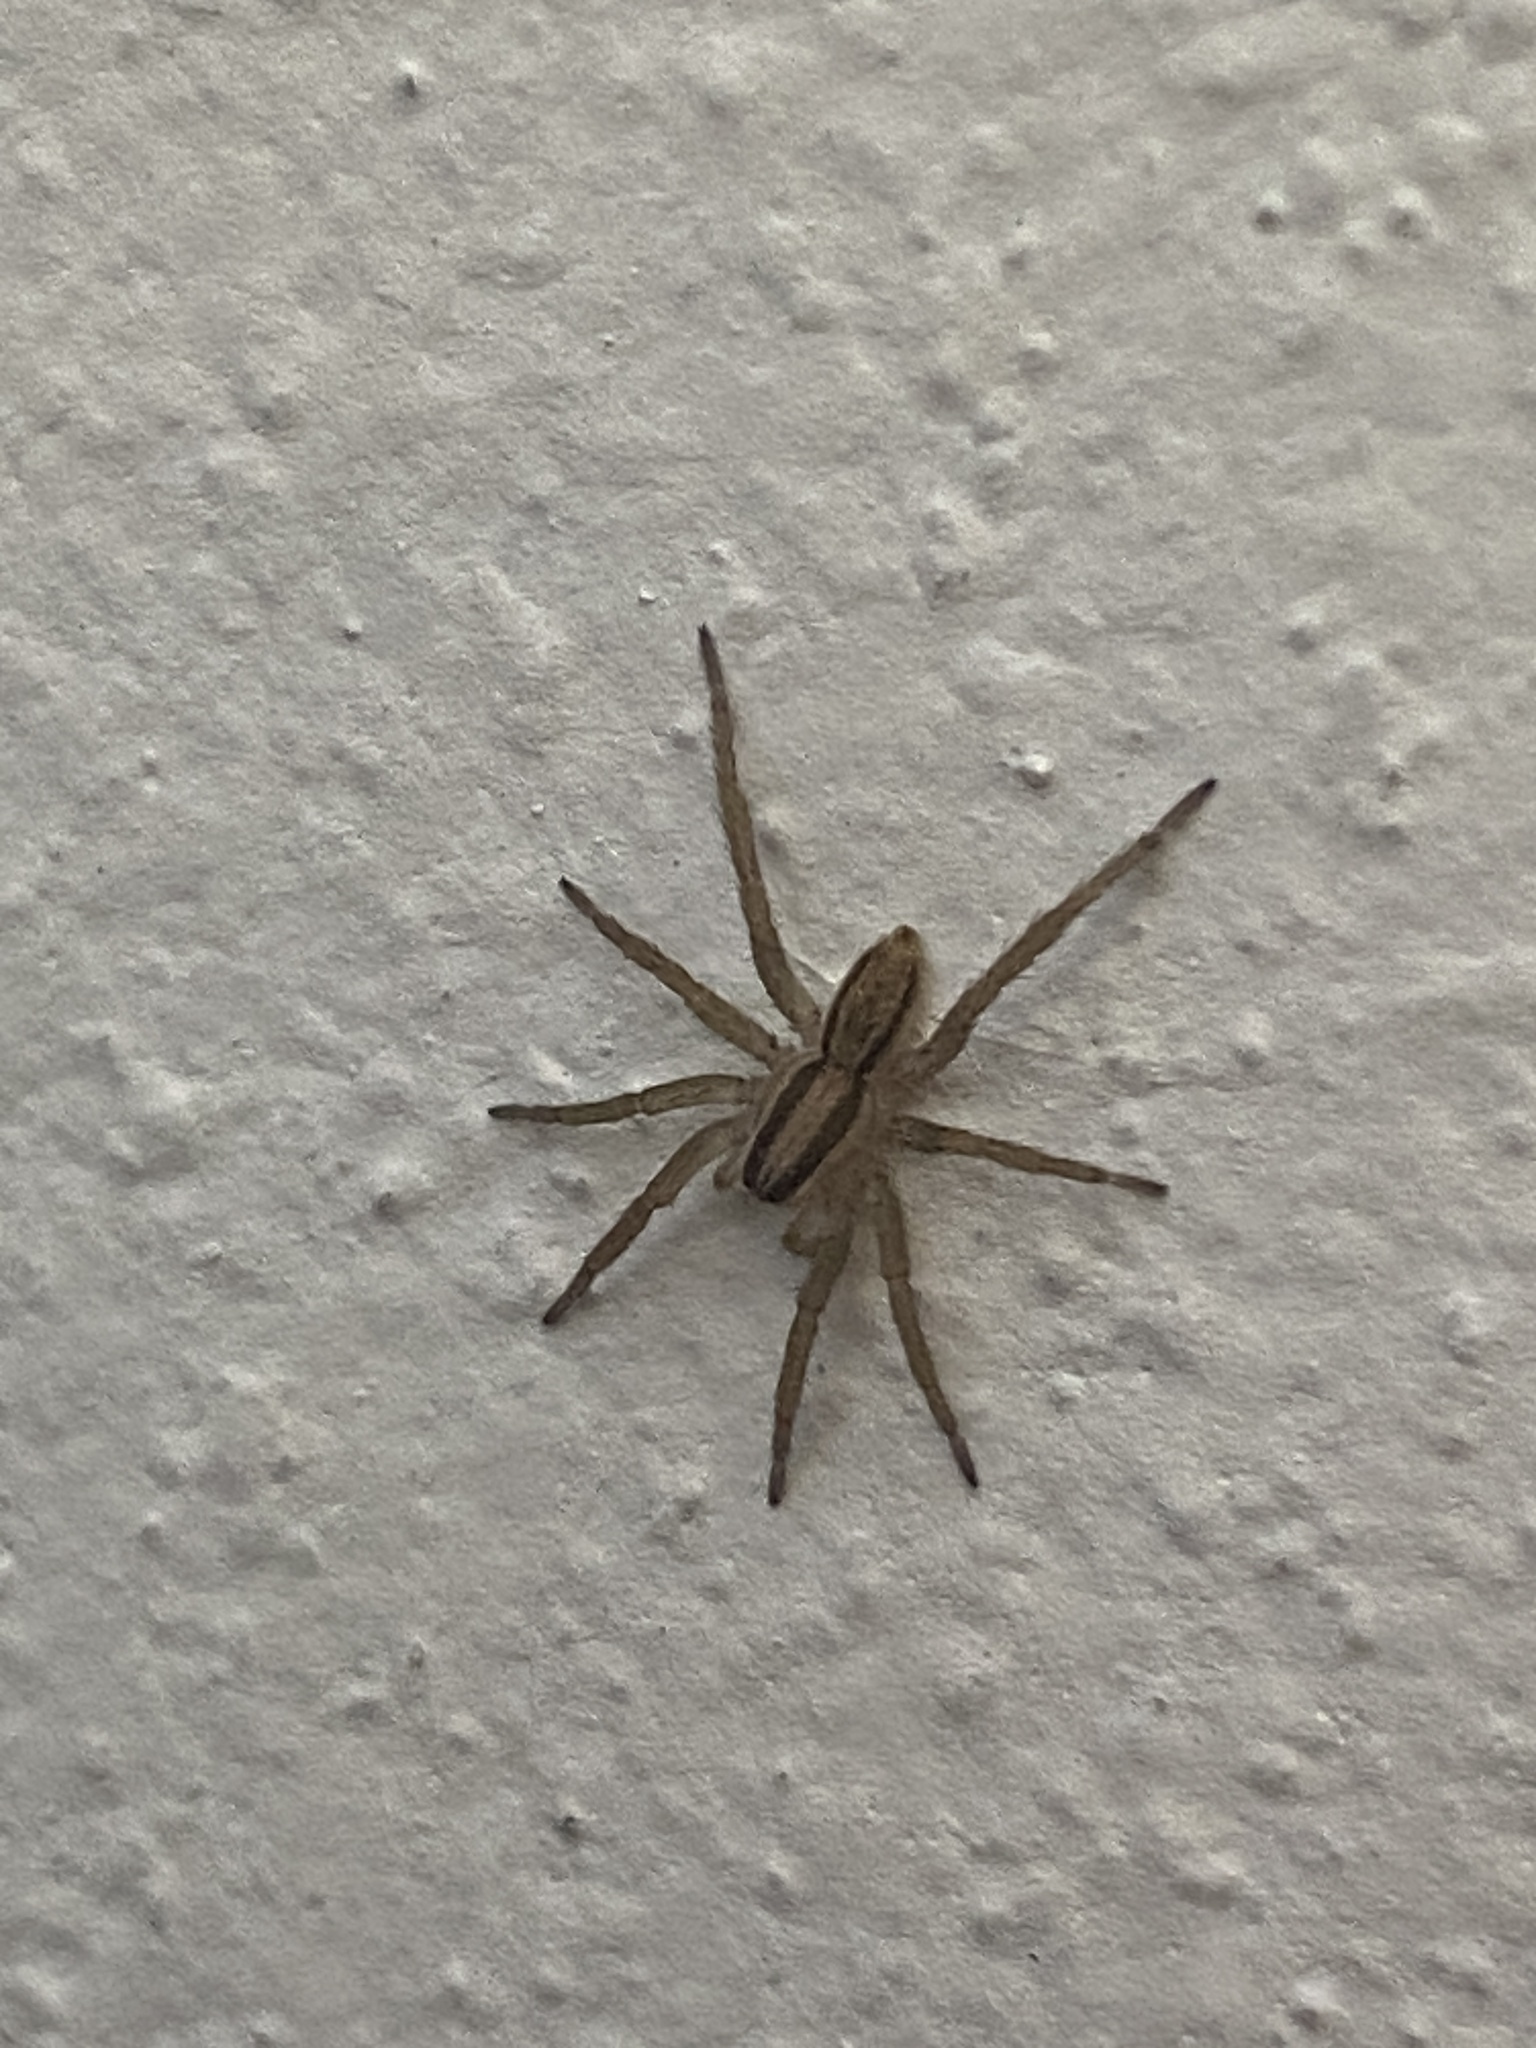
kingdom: Animalia
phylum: Arthropoda
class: Arachnida
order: Araneae
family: Lycosidae
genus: Hogna
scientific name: Hogna bivittata
